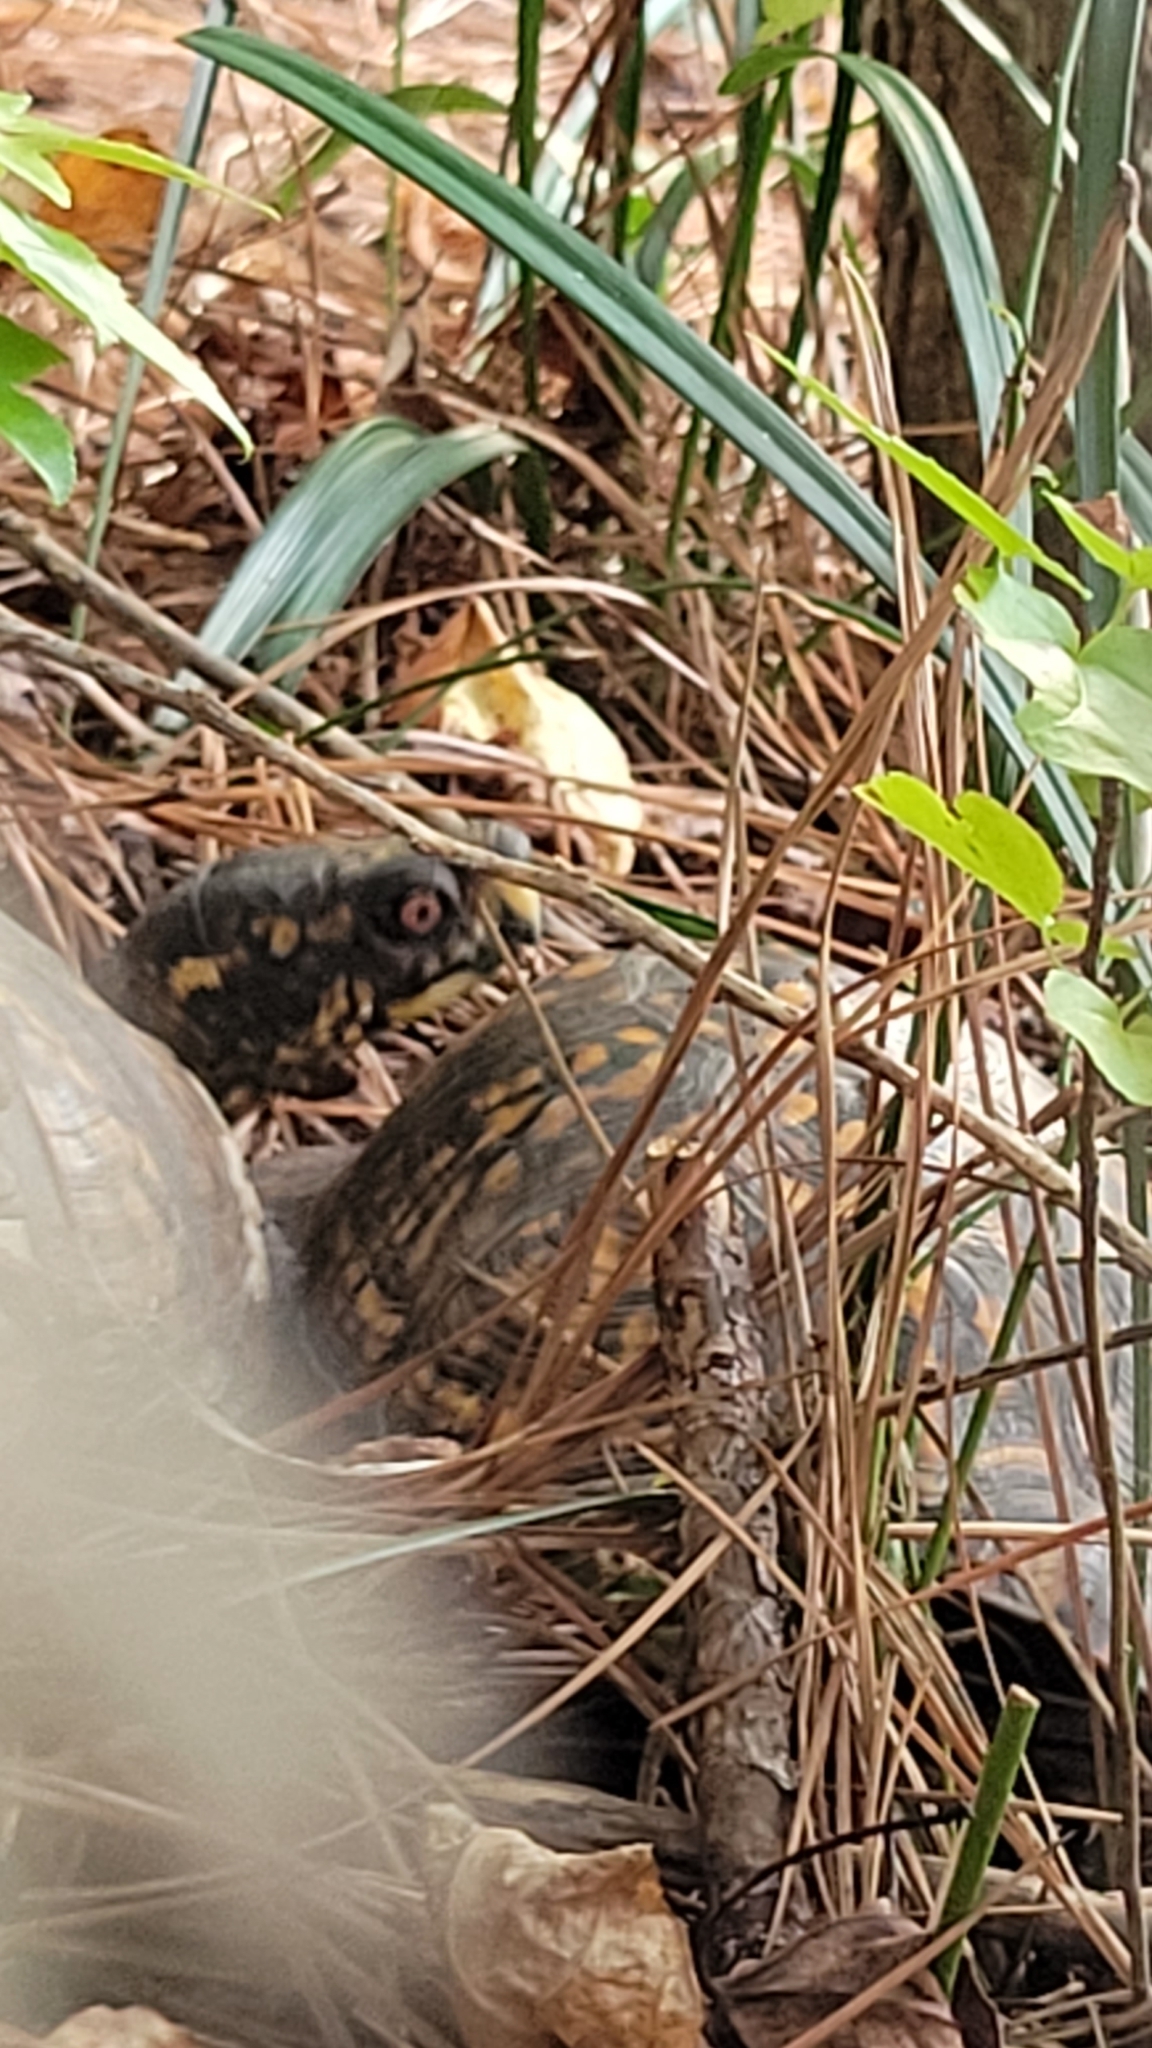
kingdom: Animalia
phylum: Chordata
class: Testudines
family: Emydidae
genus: Terrapene
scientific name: Terrapene carolina
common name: Common box turtle
